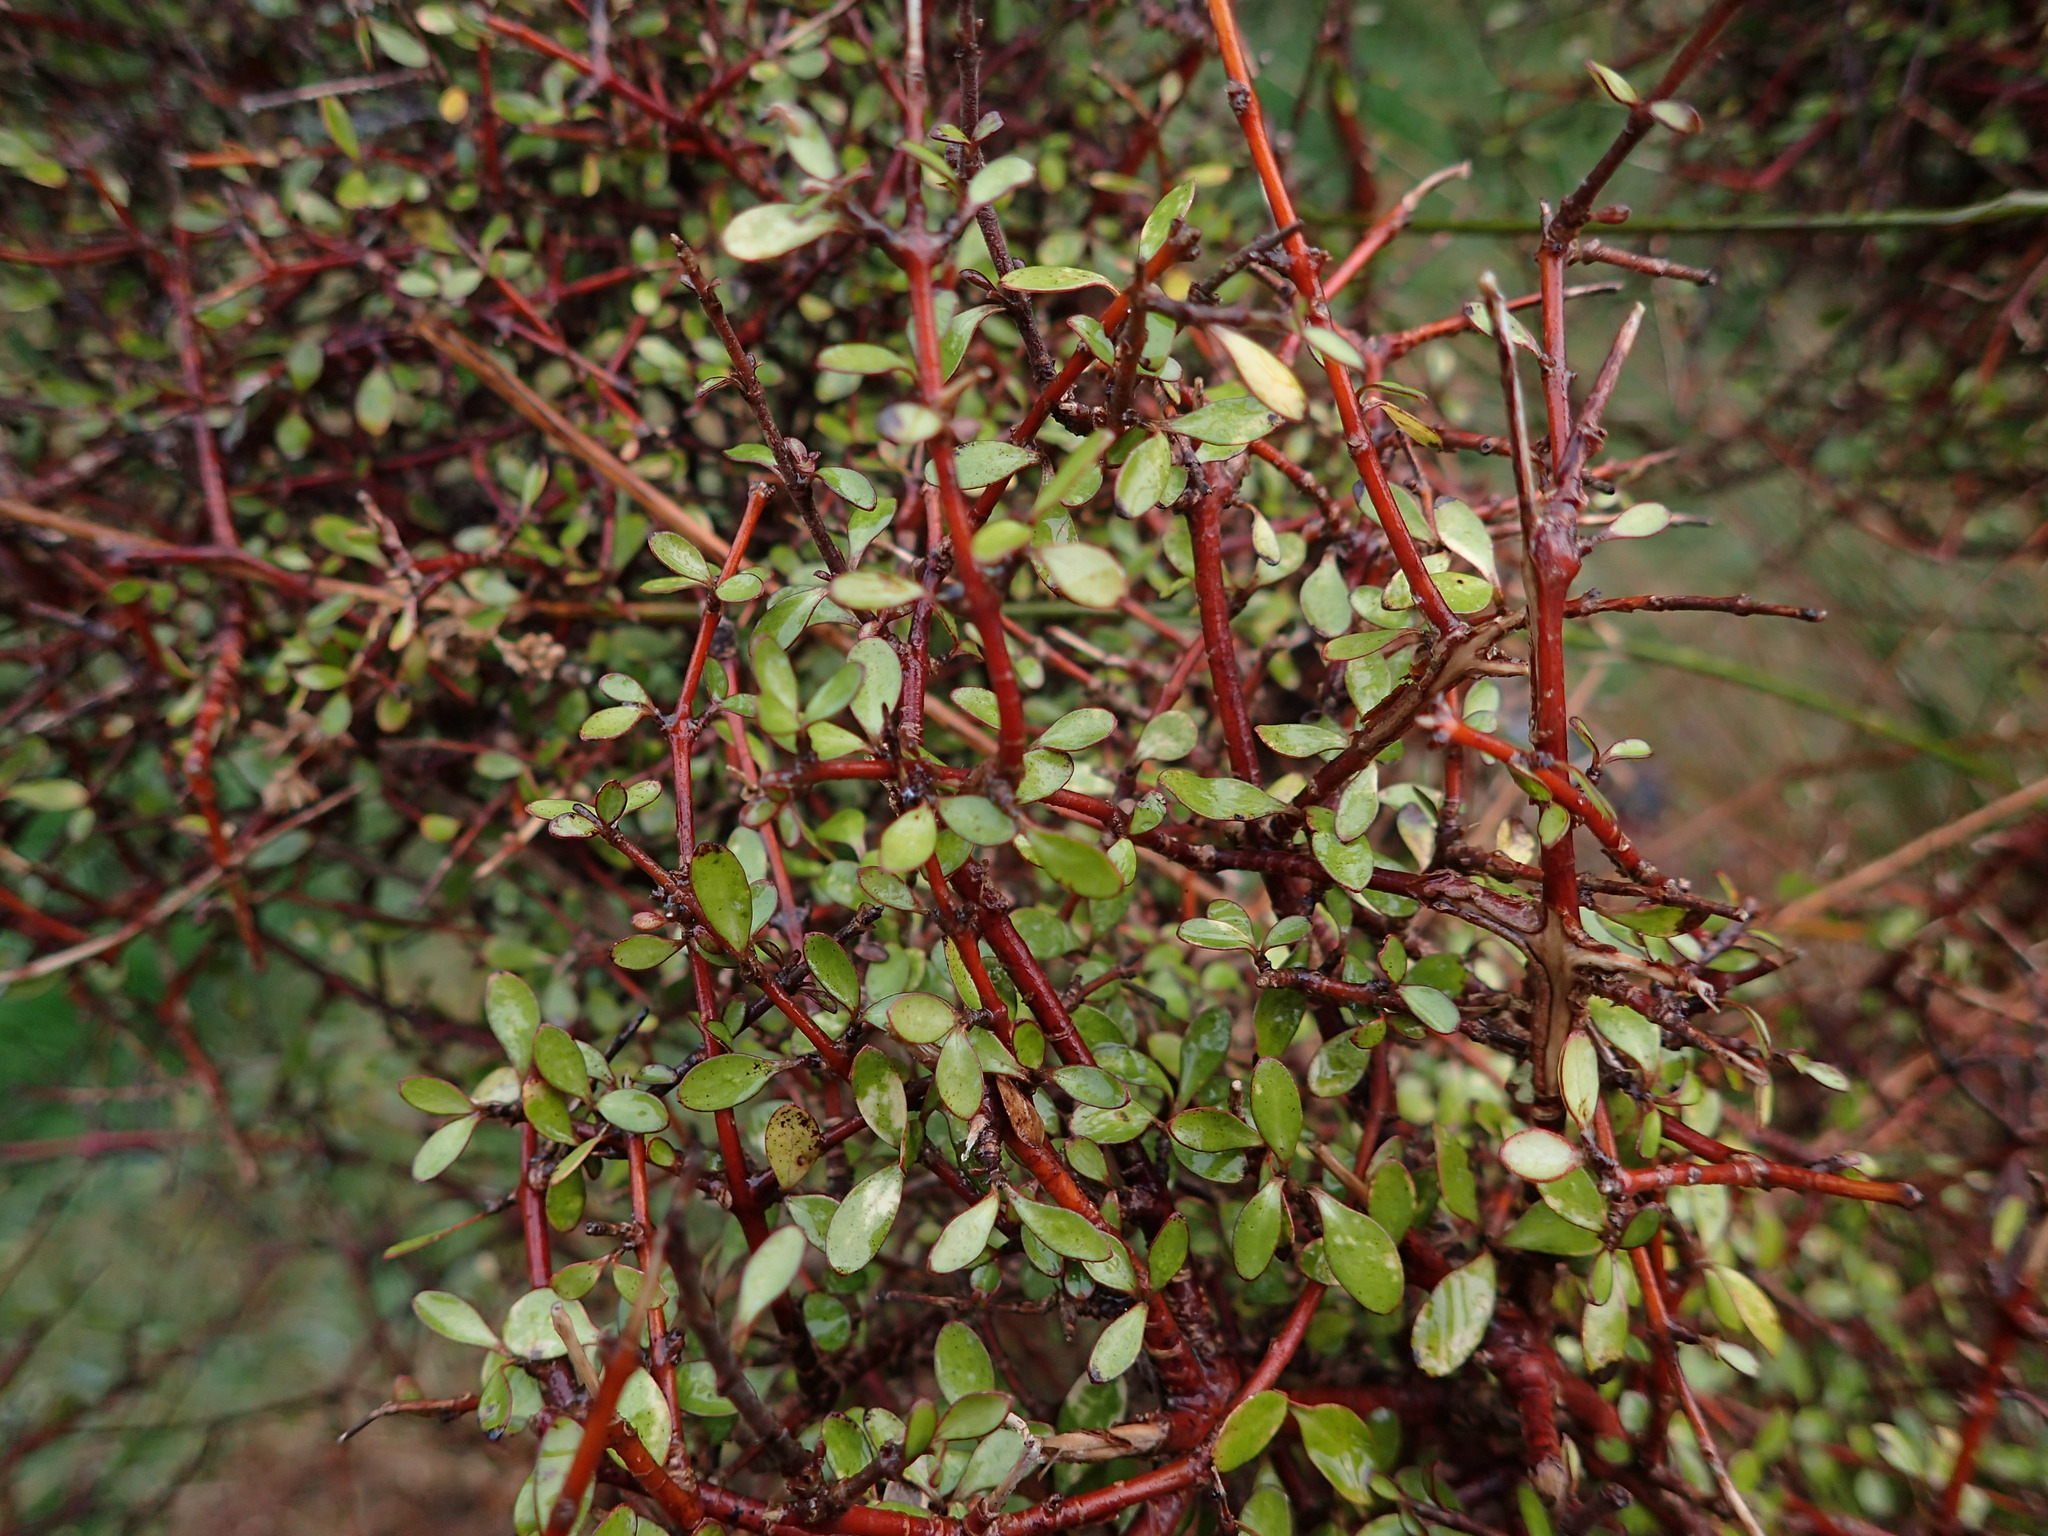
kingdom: Plantae
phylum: Tracheophyta
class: Magnoliopsida
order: Gentianales
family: Rubiaceae
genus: Coprosma
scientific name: Coprosma rigida
